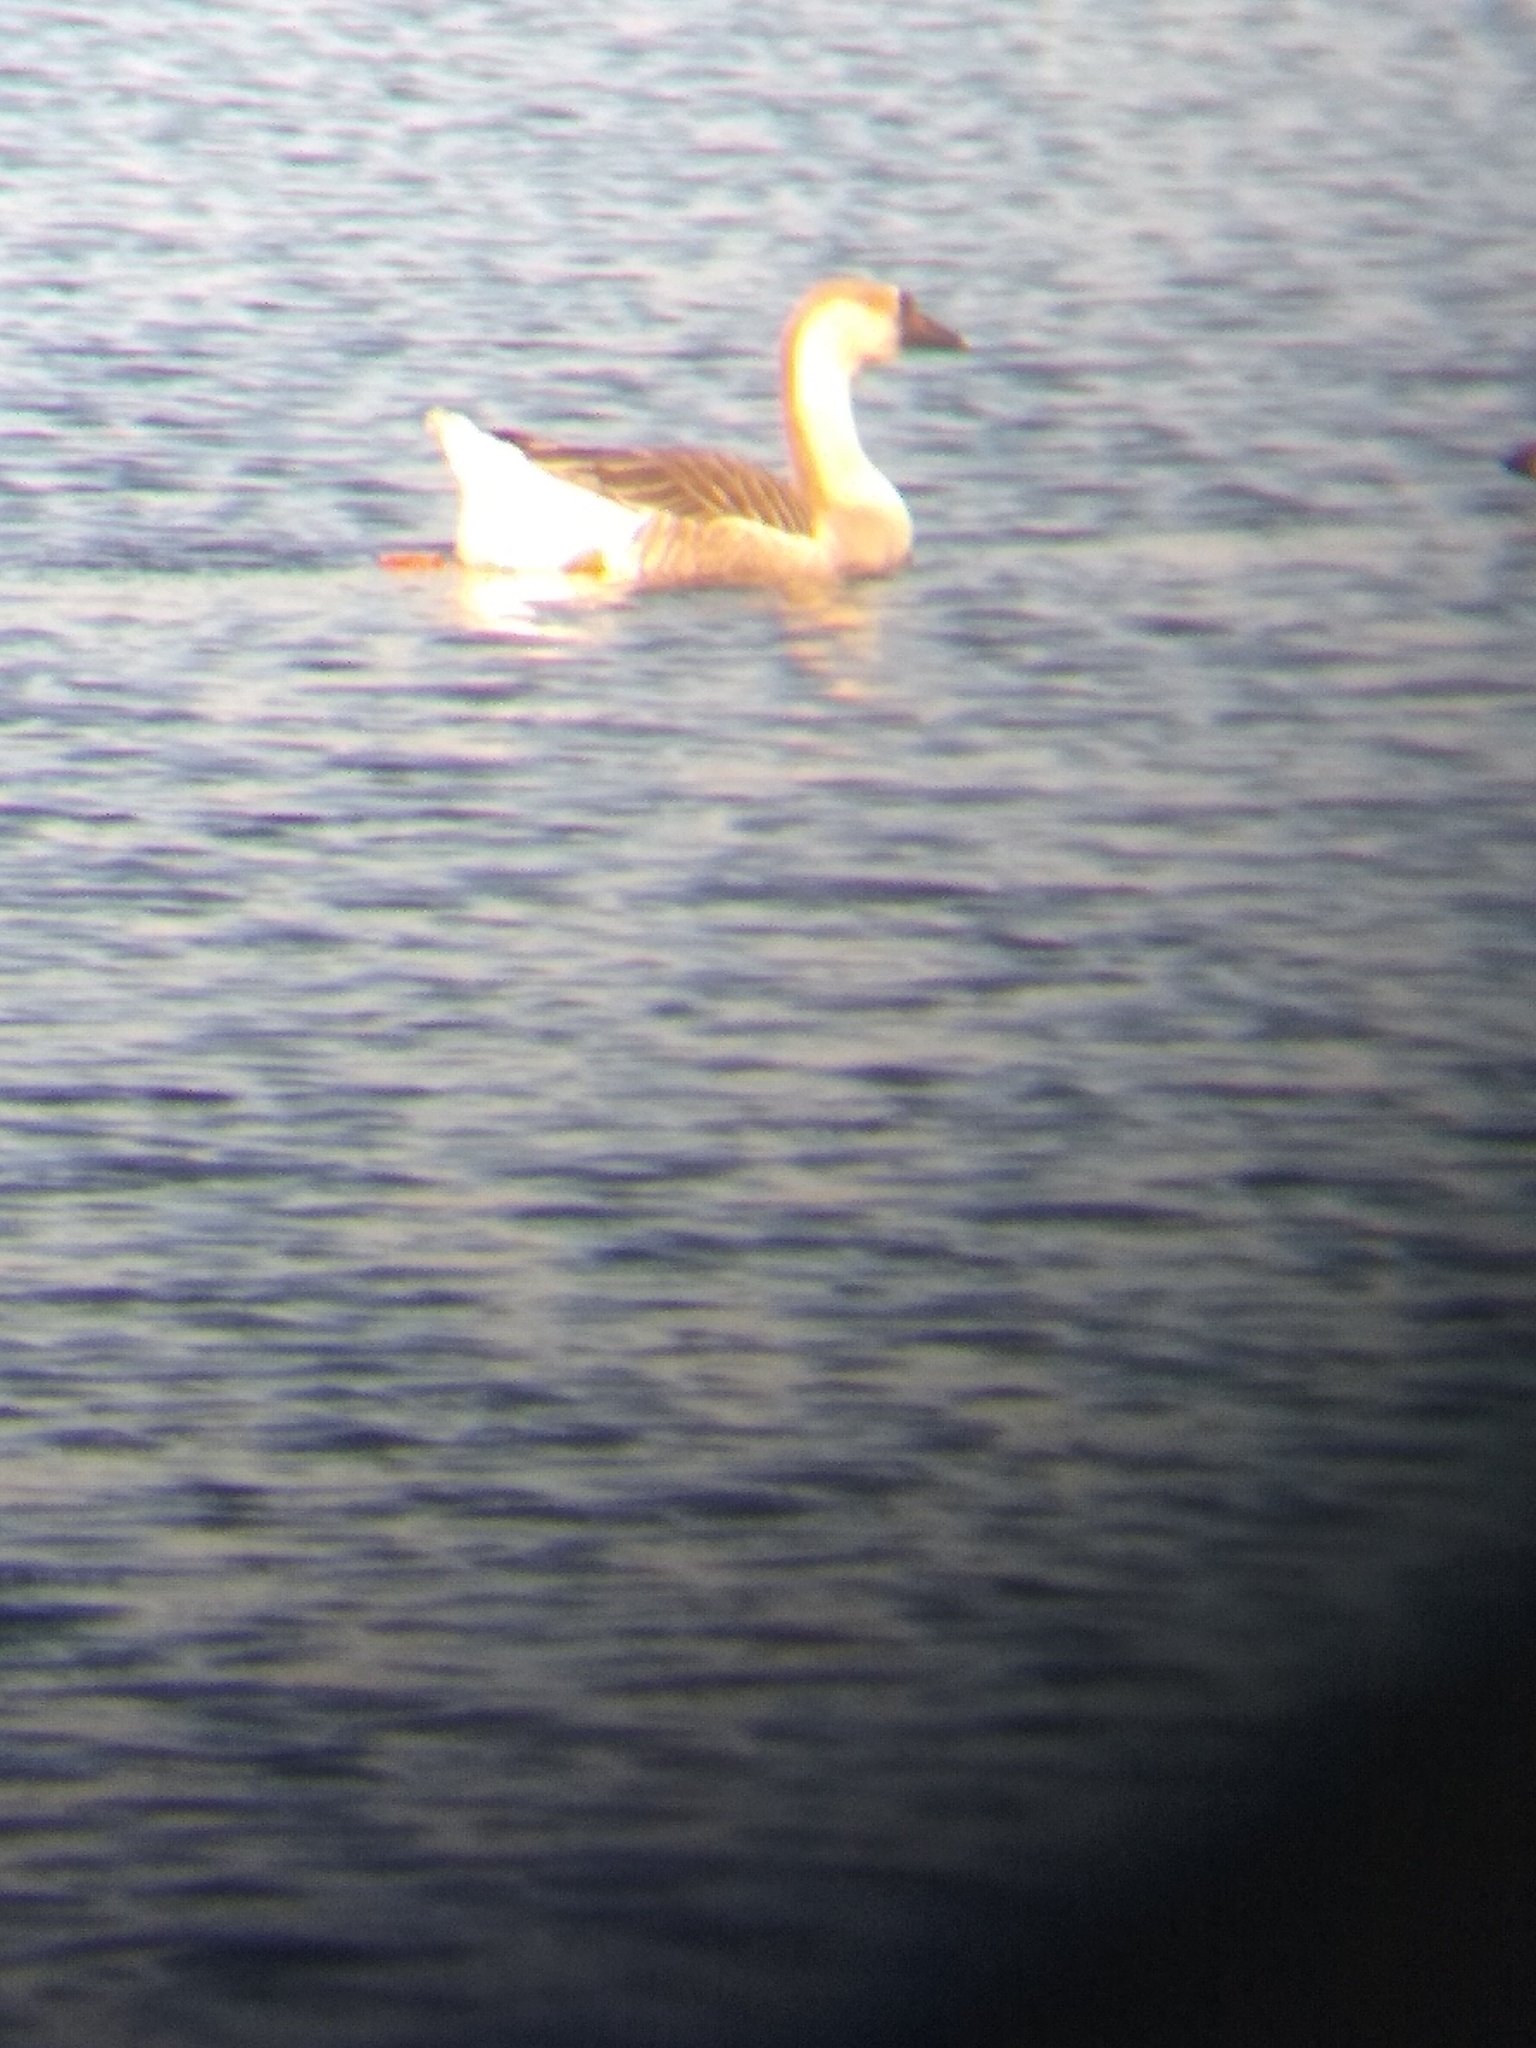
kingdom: Animalia
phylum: Chordata
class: Aves
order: Anseriformes
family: Anatidae
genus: Anser
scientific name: Anser cygnoides
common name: Swan goose
